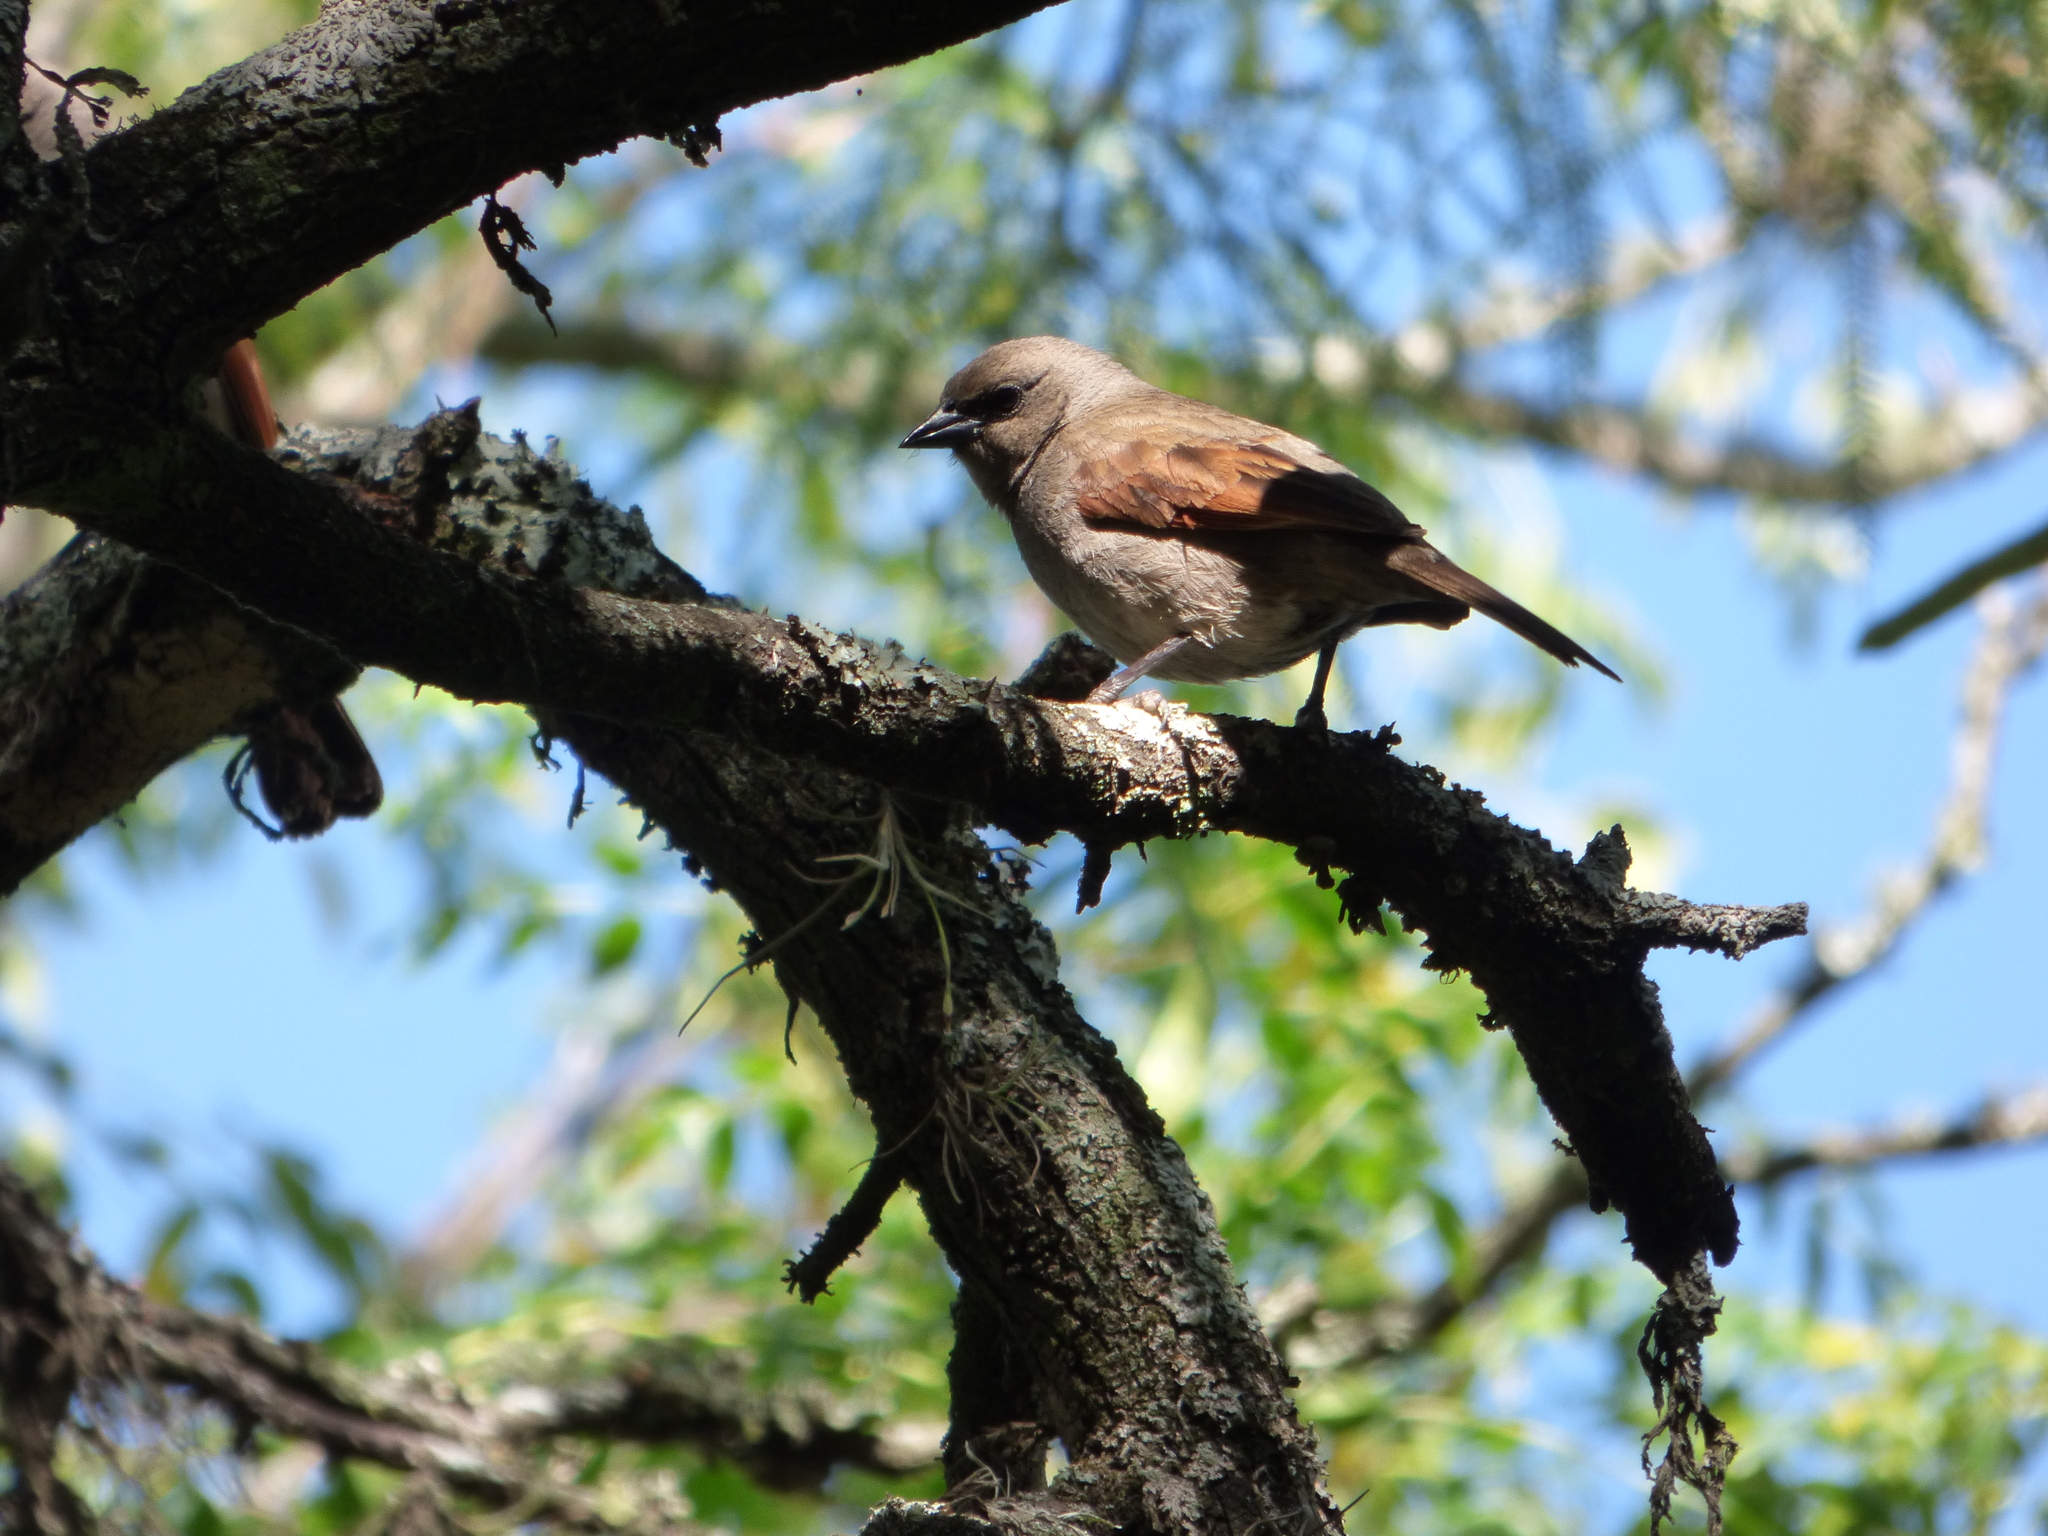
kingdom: Animalia
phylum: Chordata
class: Aves
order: Passeriformes
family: Icteridae
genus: Agelaioides
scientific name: Agelaioides badius
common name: Baywing
